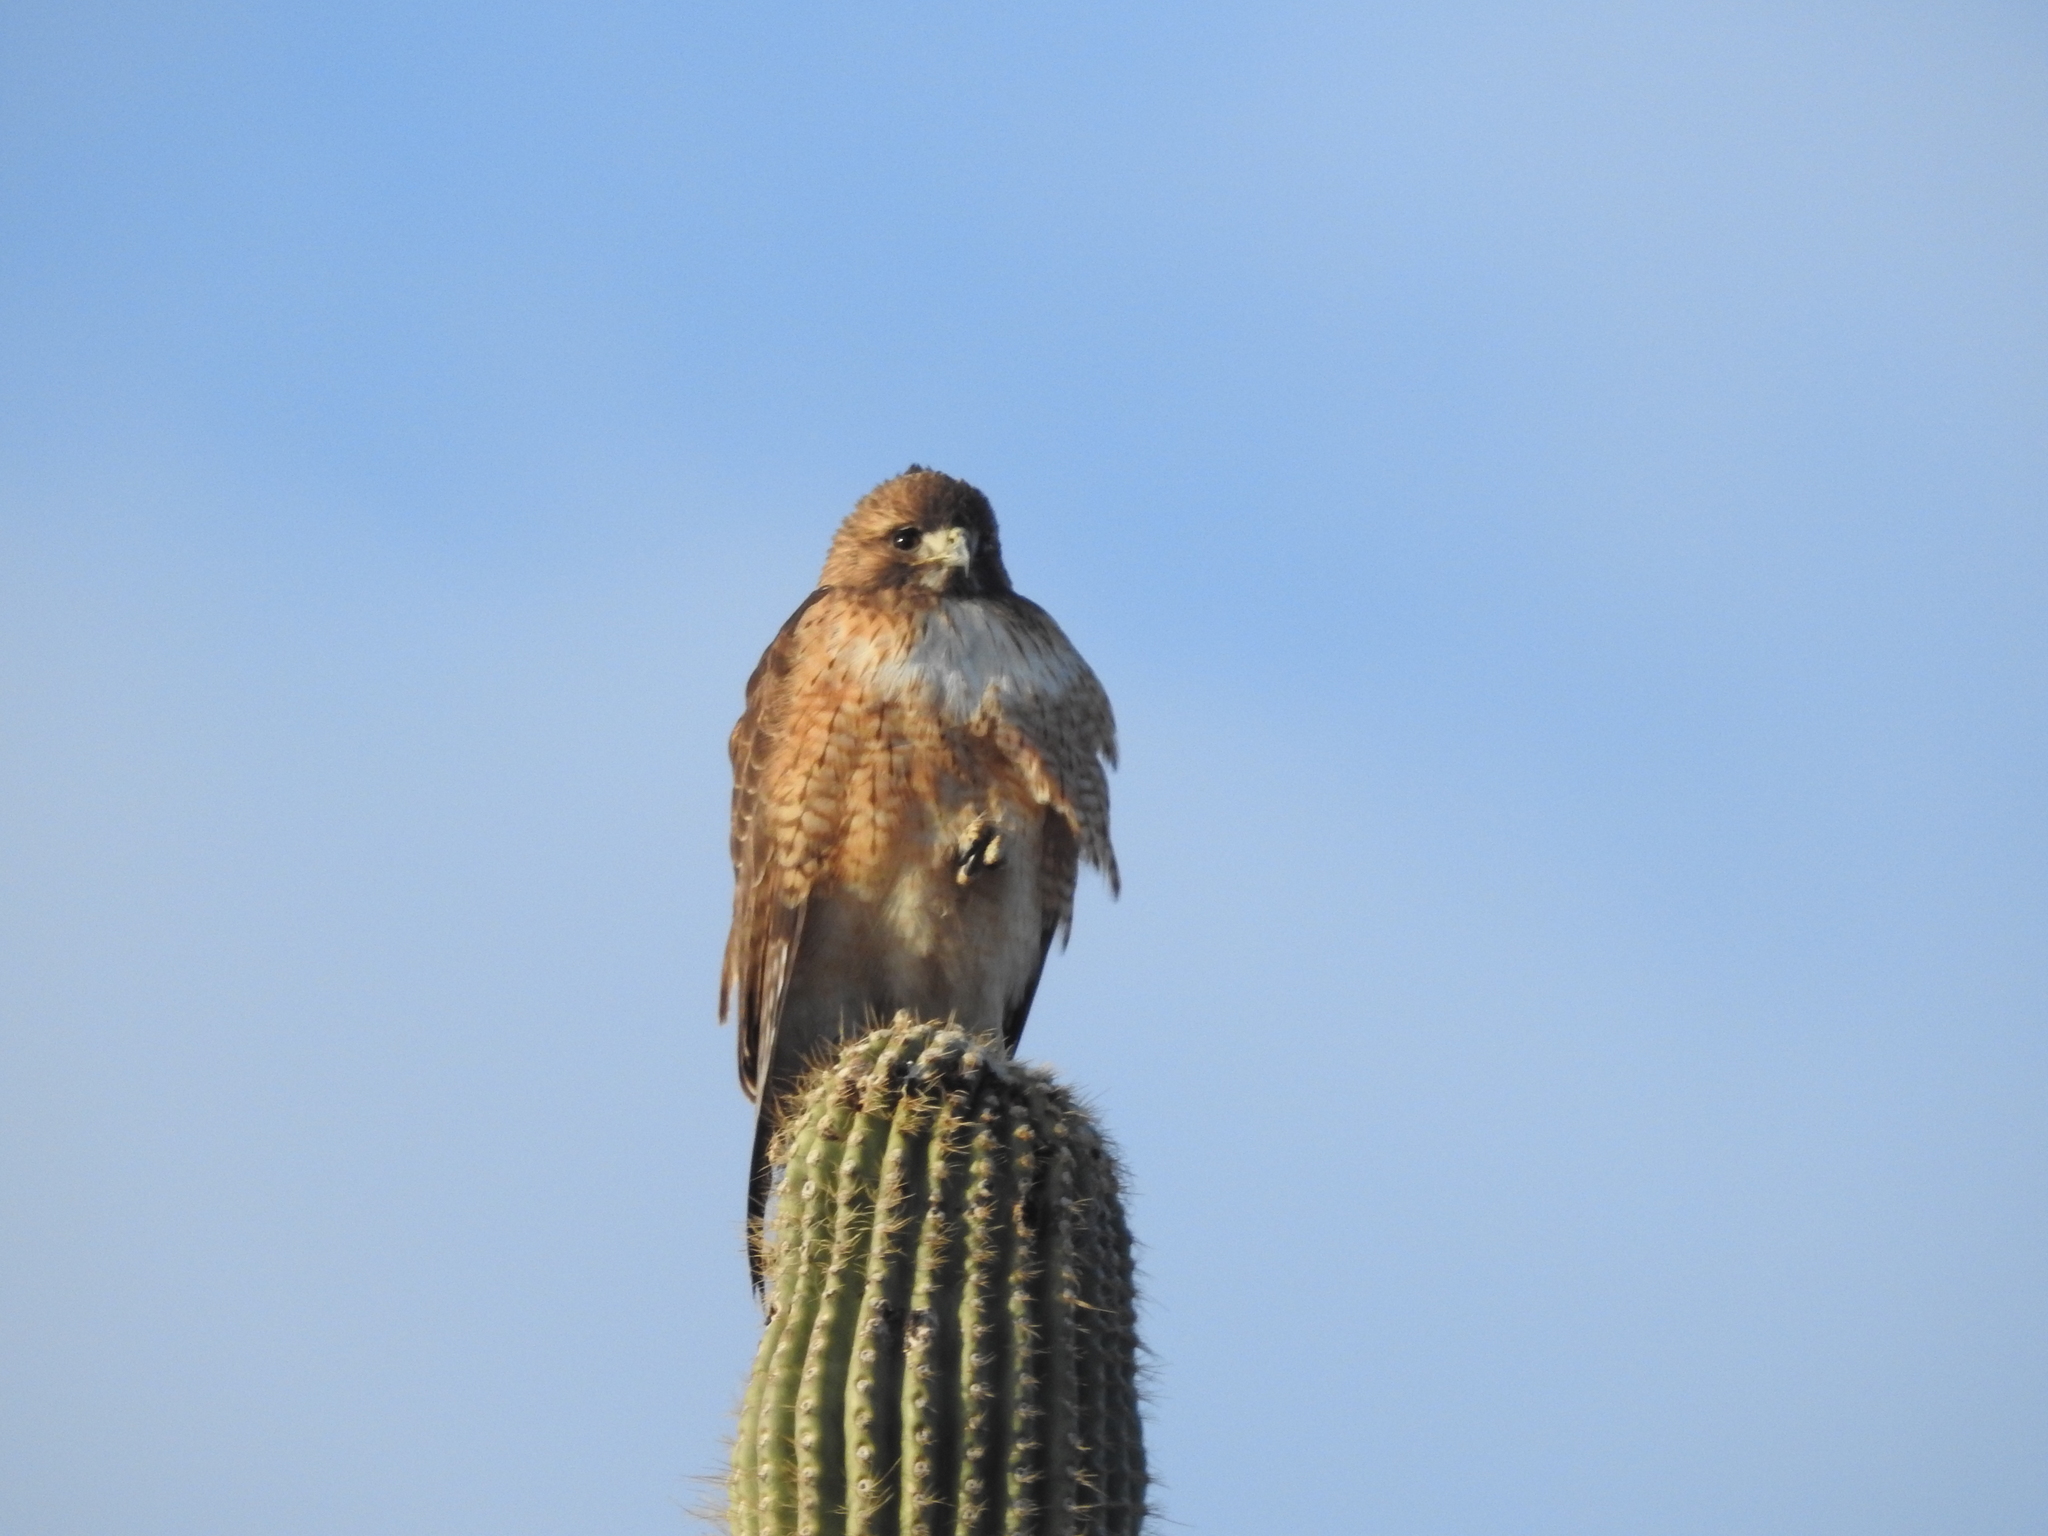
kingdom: Animalia
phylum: Chordata
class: Aves
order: Accipitriformes
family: Accipitridae
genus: Buteo
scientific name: Buteo jamaicensis
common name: Red-tailed hawk
